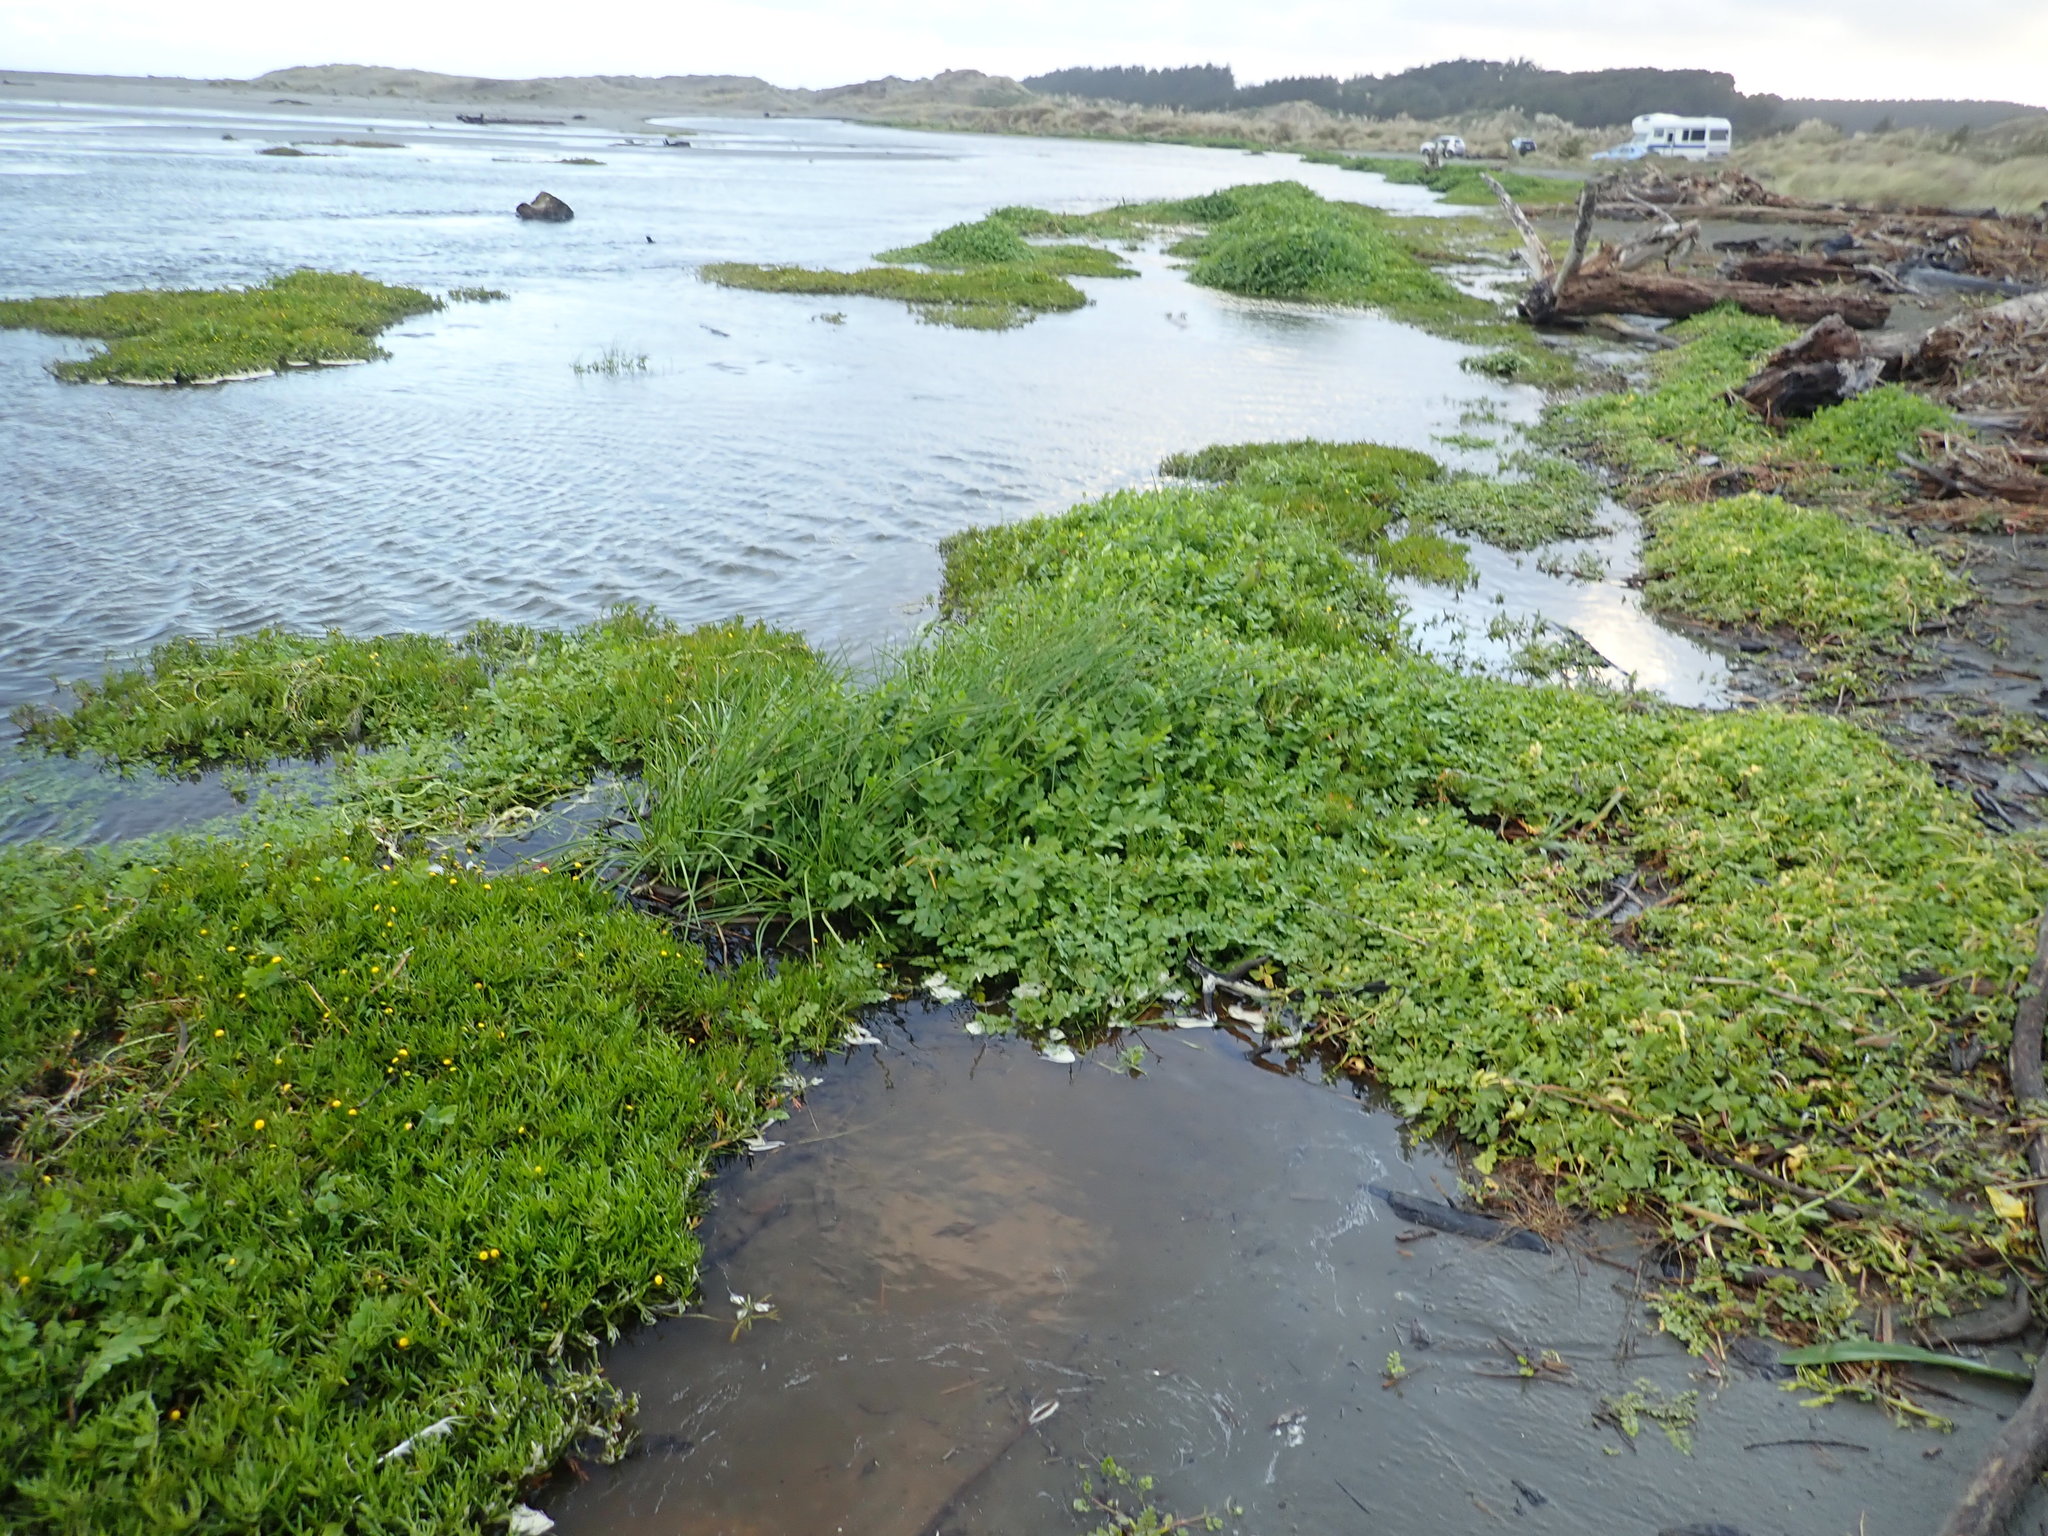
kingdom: Plantae
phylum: Tracheophyta
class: Liliopsida
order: Poales
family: Cyperaceae
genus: Isolepis
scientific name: Isolepis prolifera
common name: Proliferating bulrush
